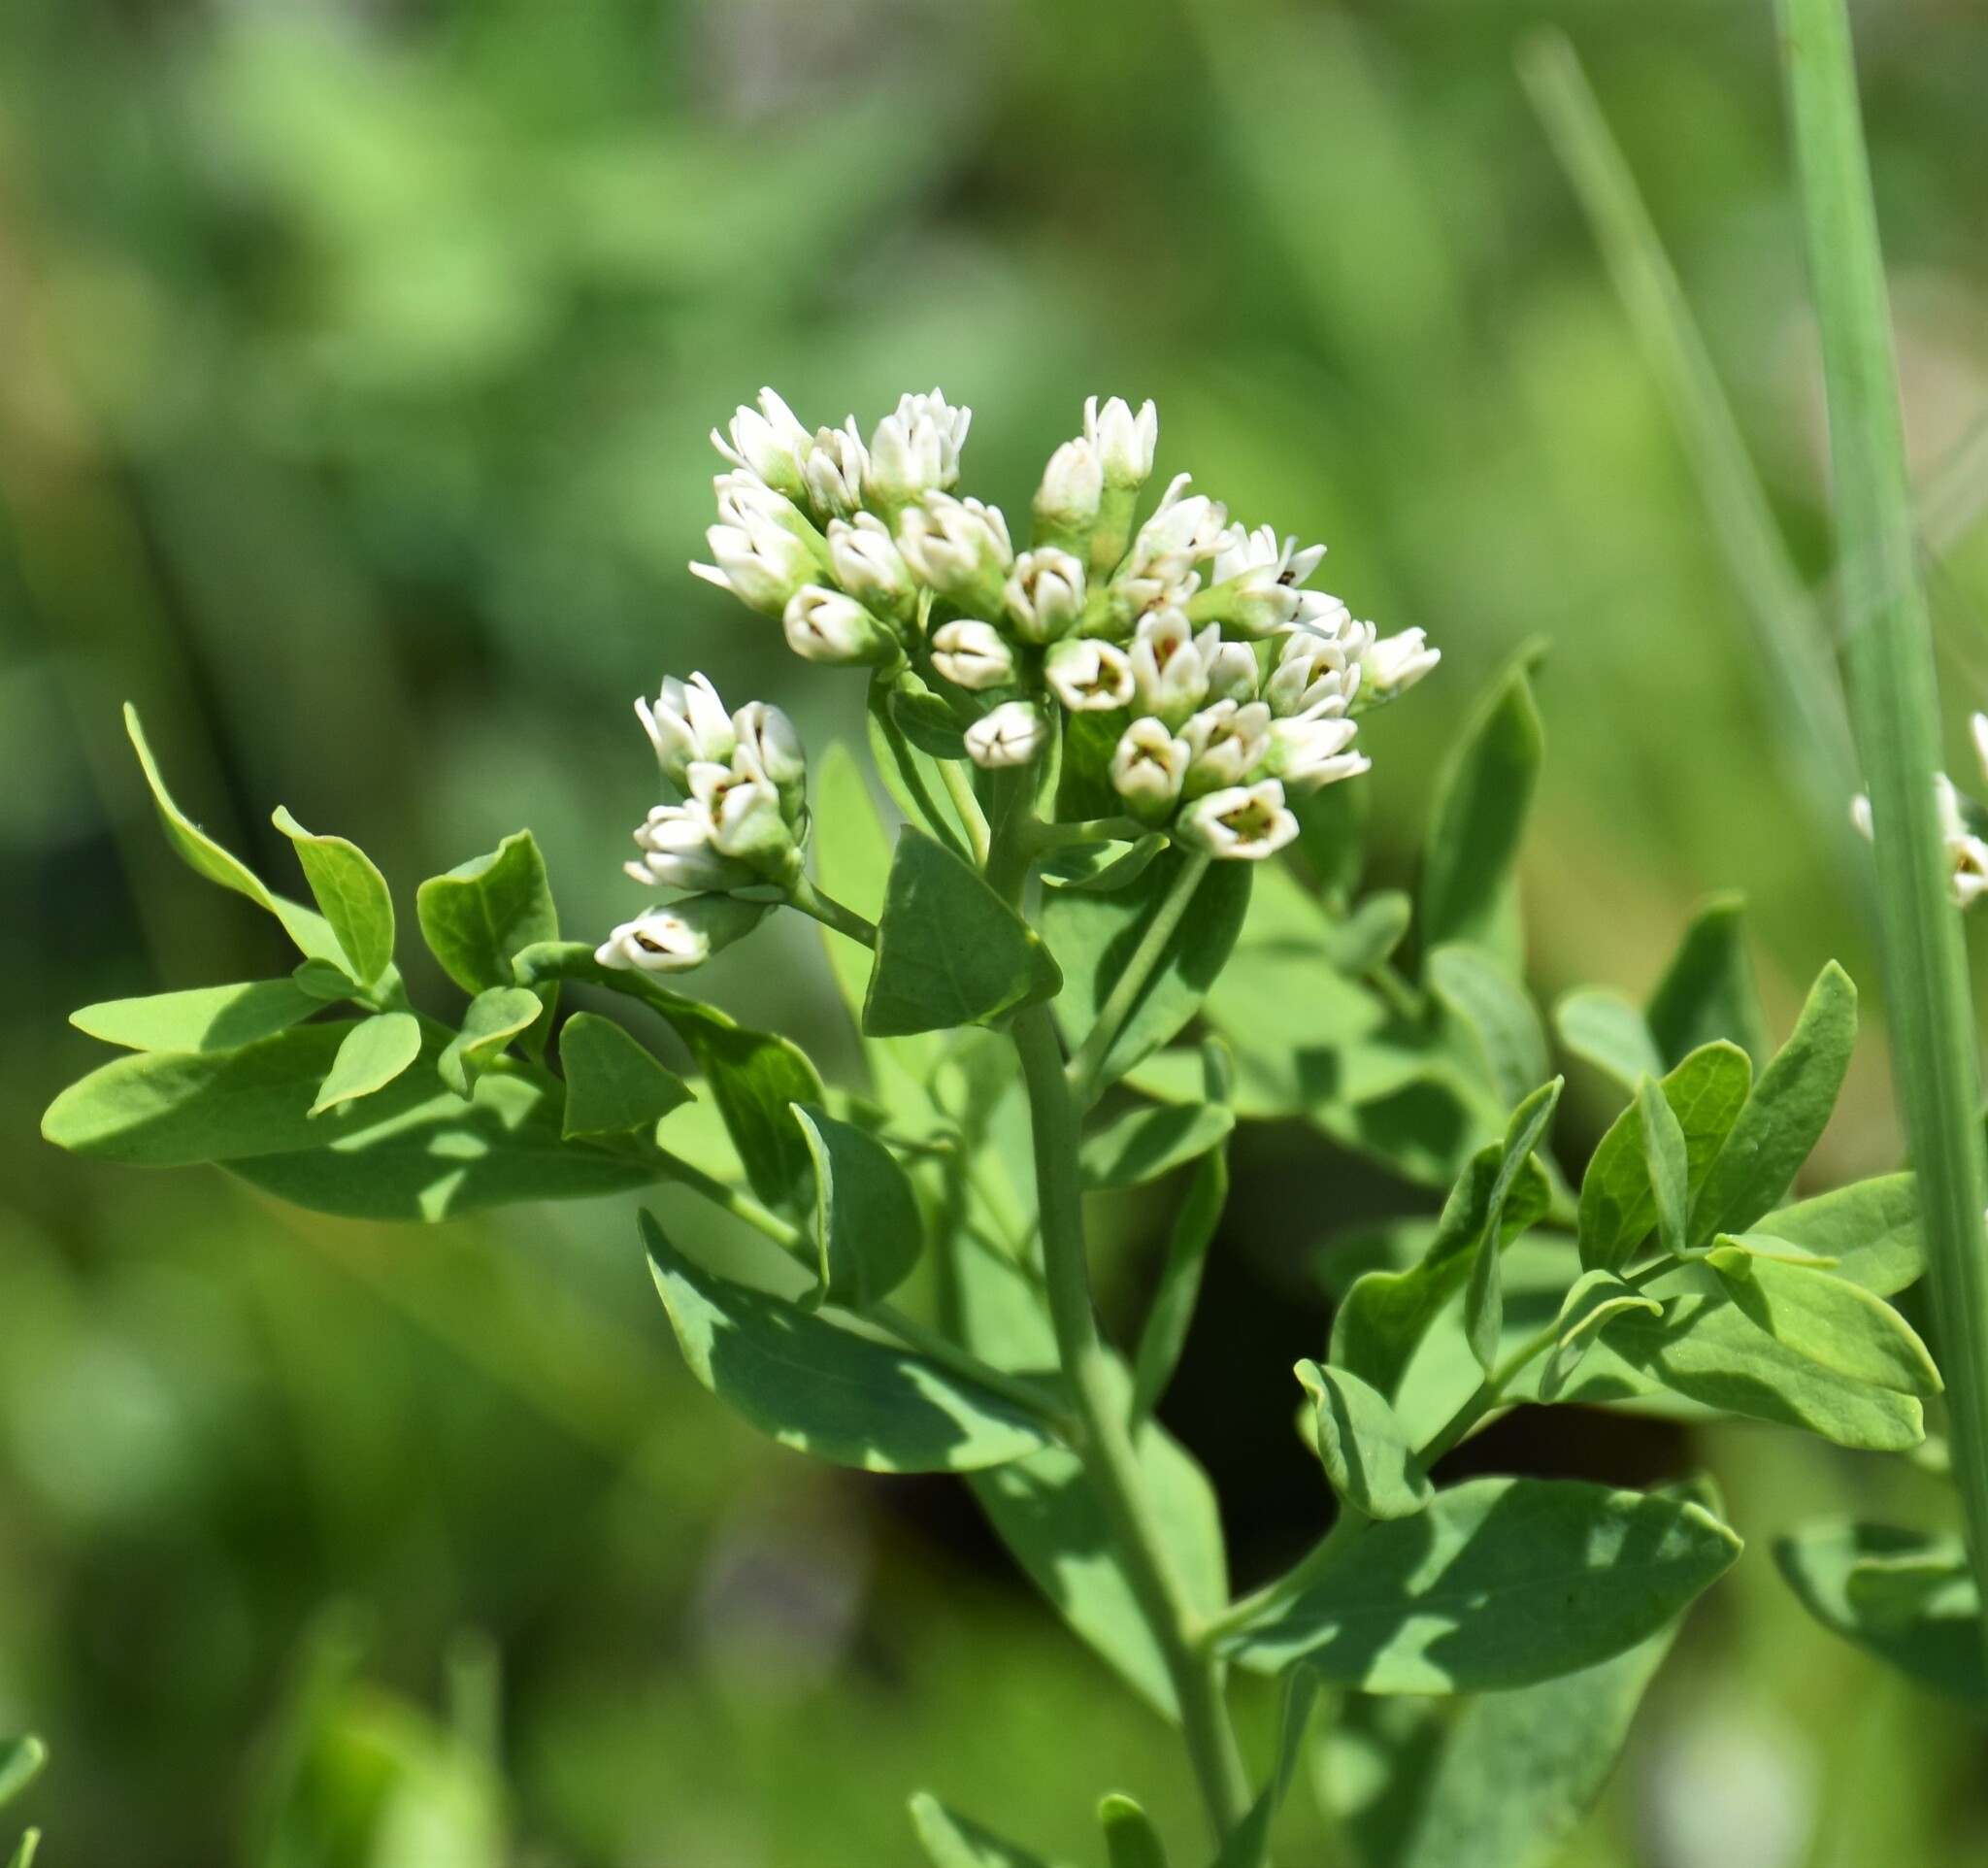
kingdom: Plantae
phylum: Tracheophyta
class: Magnoliopsida
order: Santalales
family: Comandraceae
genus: Comandra
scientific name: Comandra umbellata
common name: Bastard toadflax
